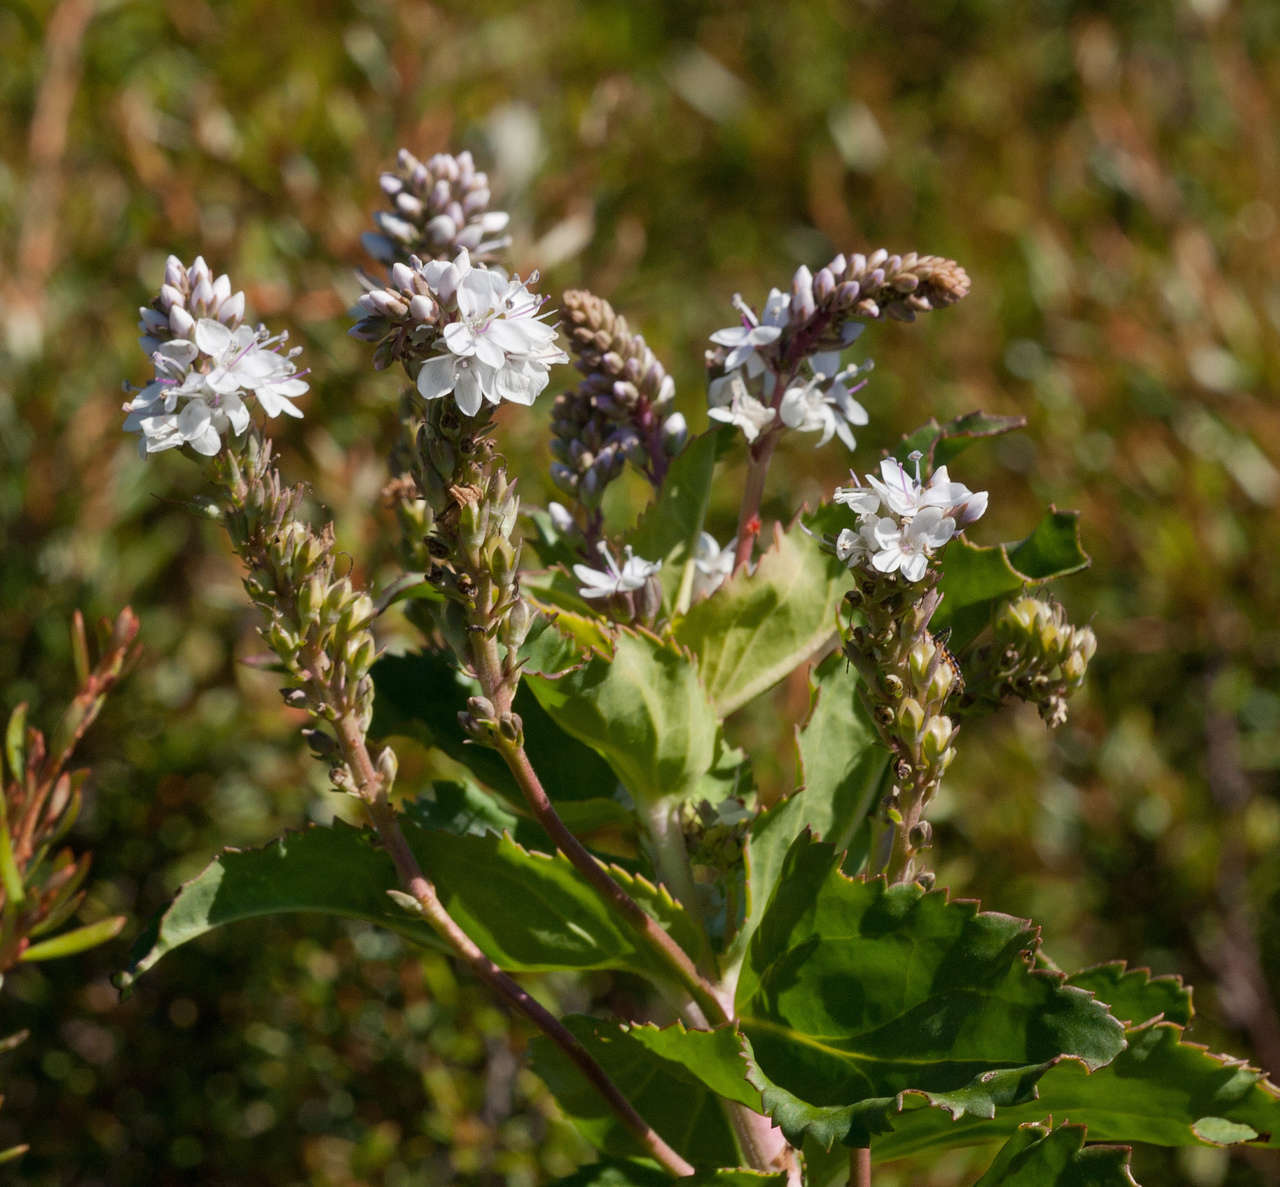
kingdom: Plantae
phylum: Tracheophyta
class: Magnoliopsida
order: Lamiales
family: Plantaginaceae
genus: Veronica
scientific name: Veronica derwentiana
